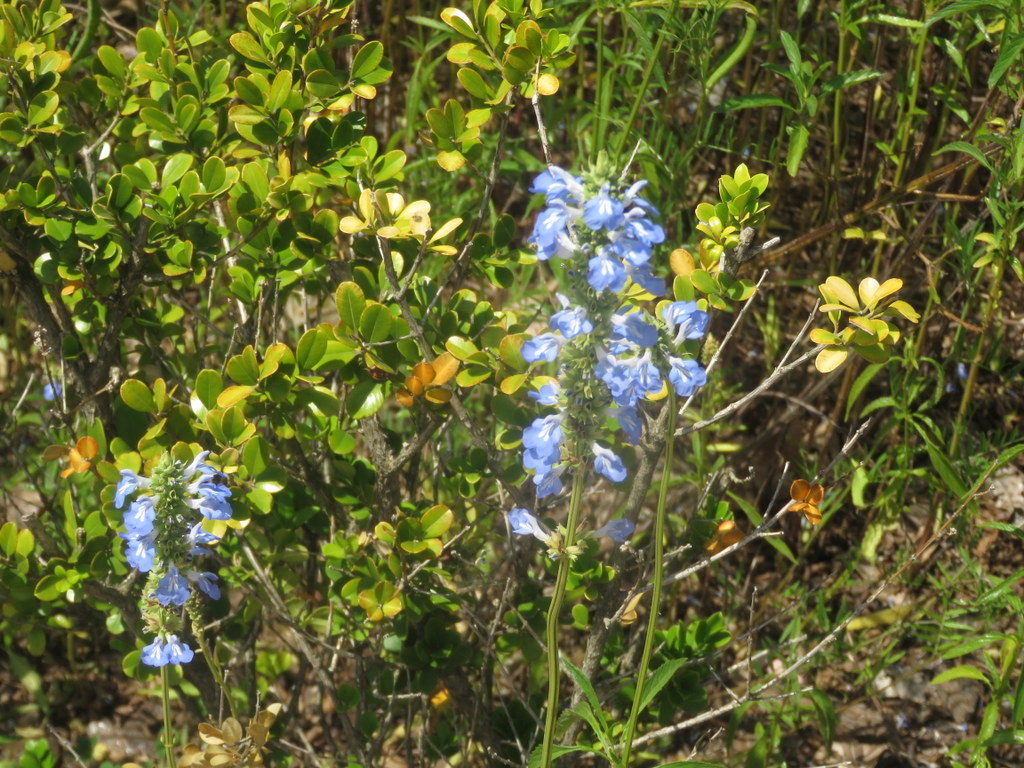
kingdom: Plantae
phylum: Tracheophyta
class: Magnoliopsida
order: Lamiales
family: Lamiaceae
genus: Salvia
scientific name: Salvia uliginosa
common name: Bog sage
